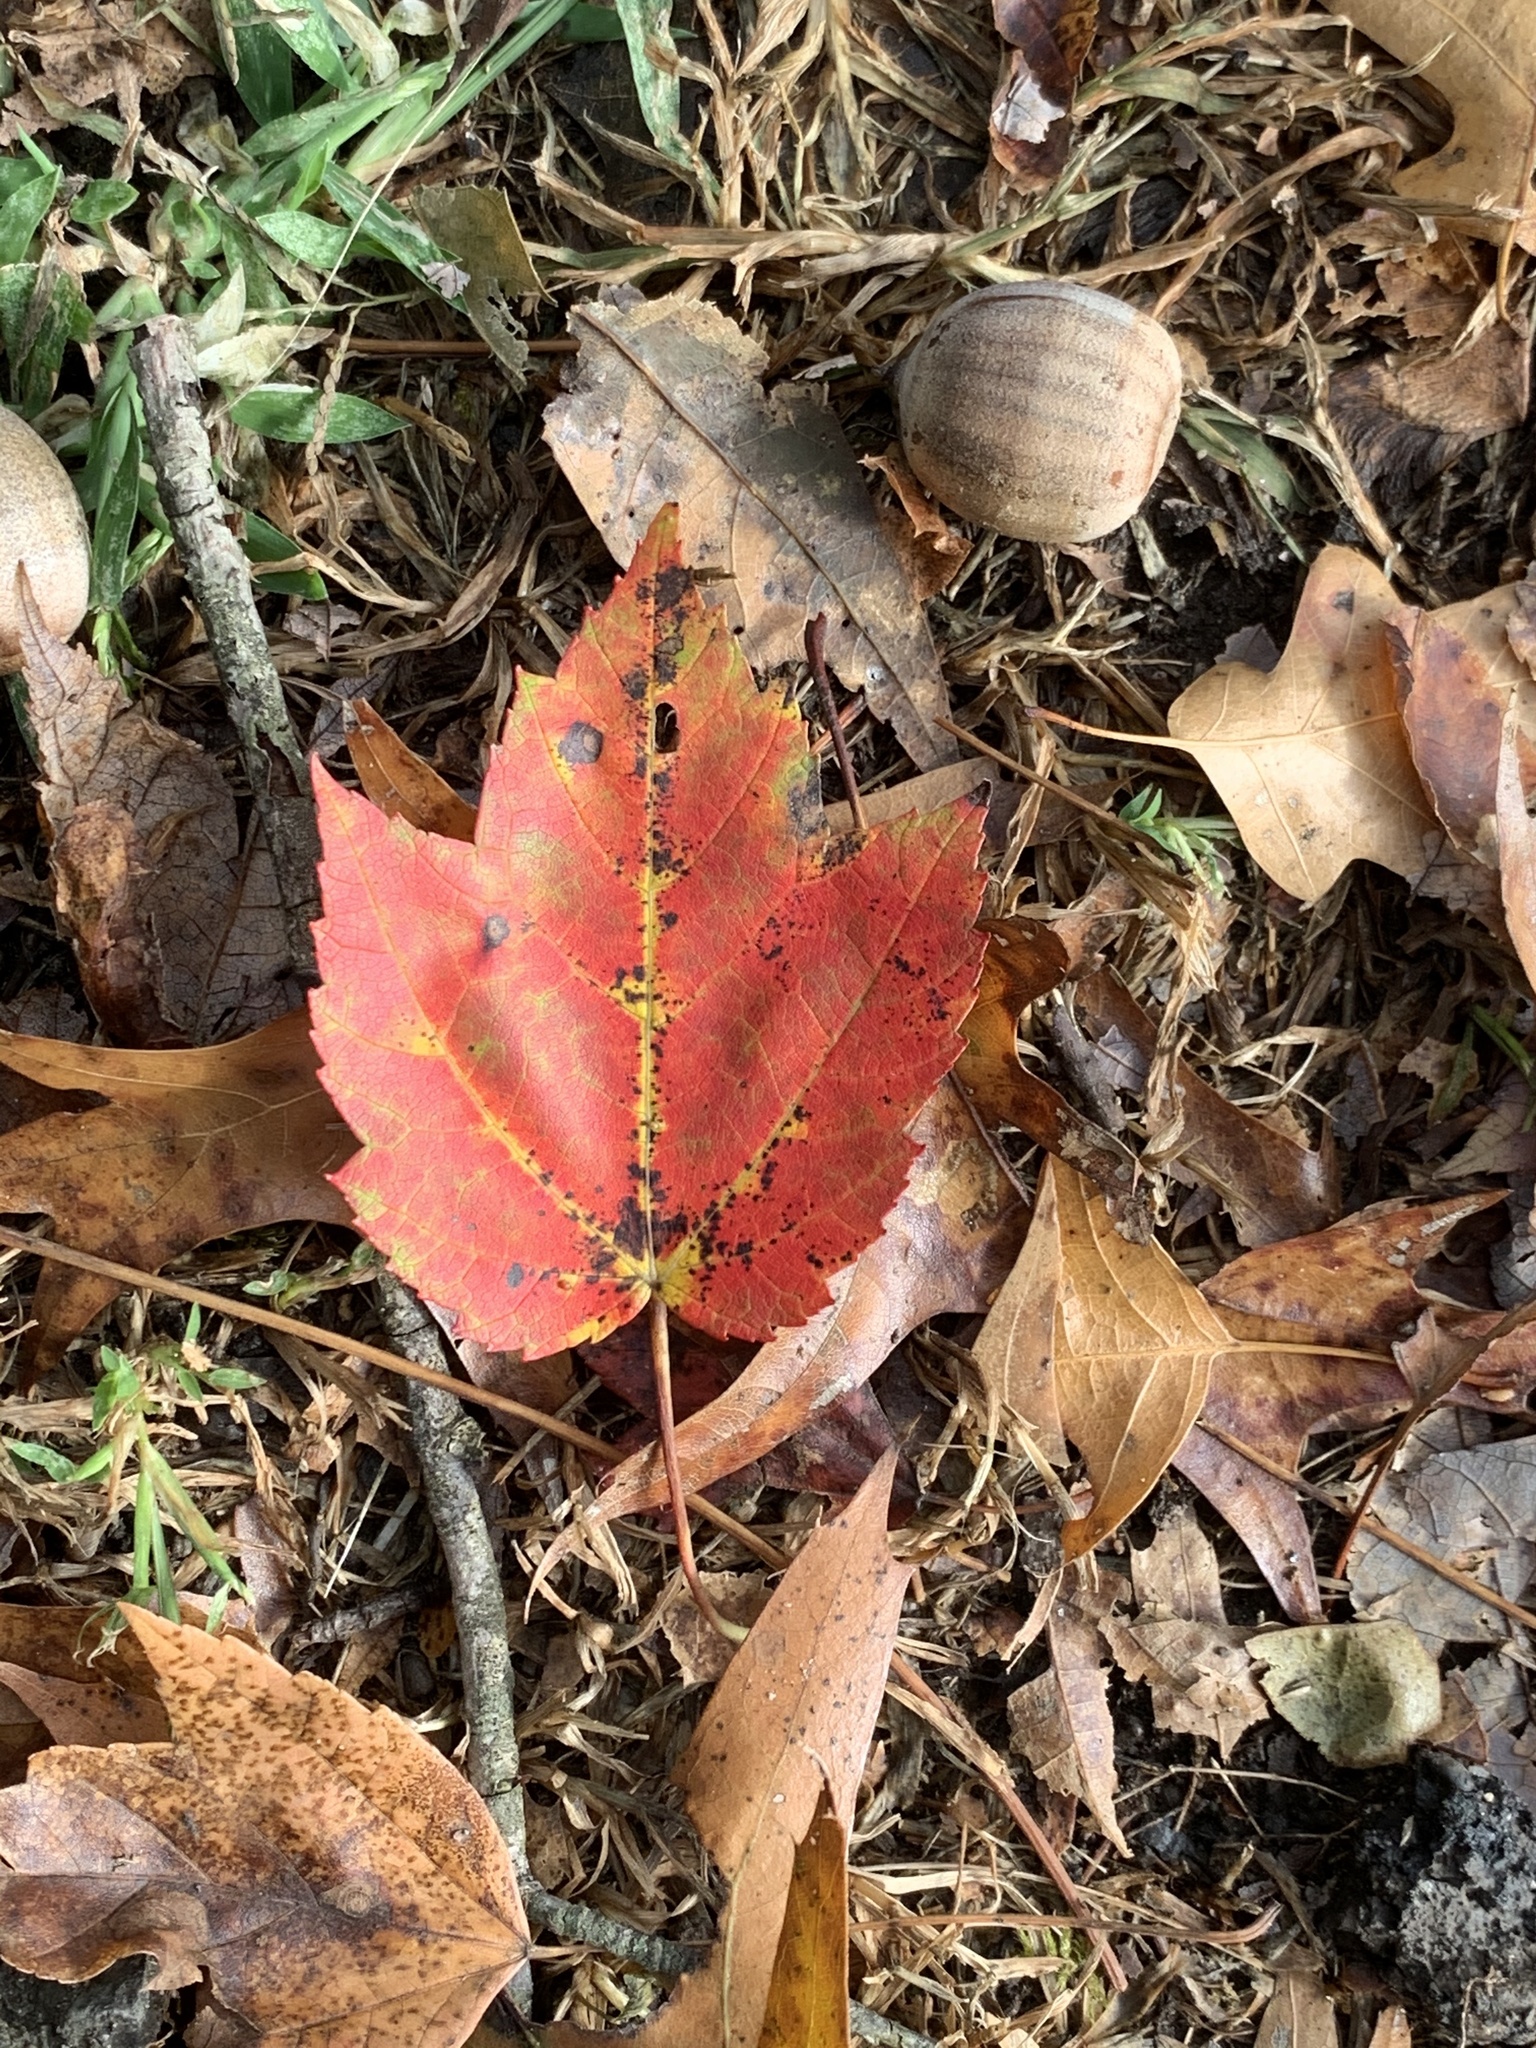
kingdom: Plantae
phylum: Tracheophyta
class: Magnoliopsida
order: Sapindales
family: Sapindaceae
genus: Acer
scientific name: Acer rubrum
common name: Red maple
